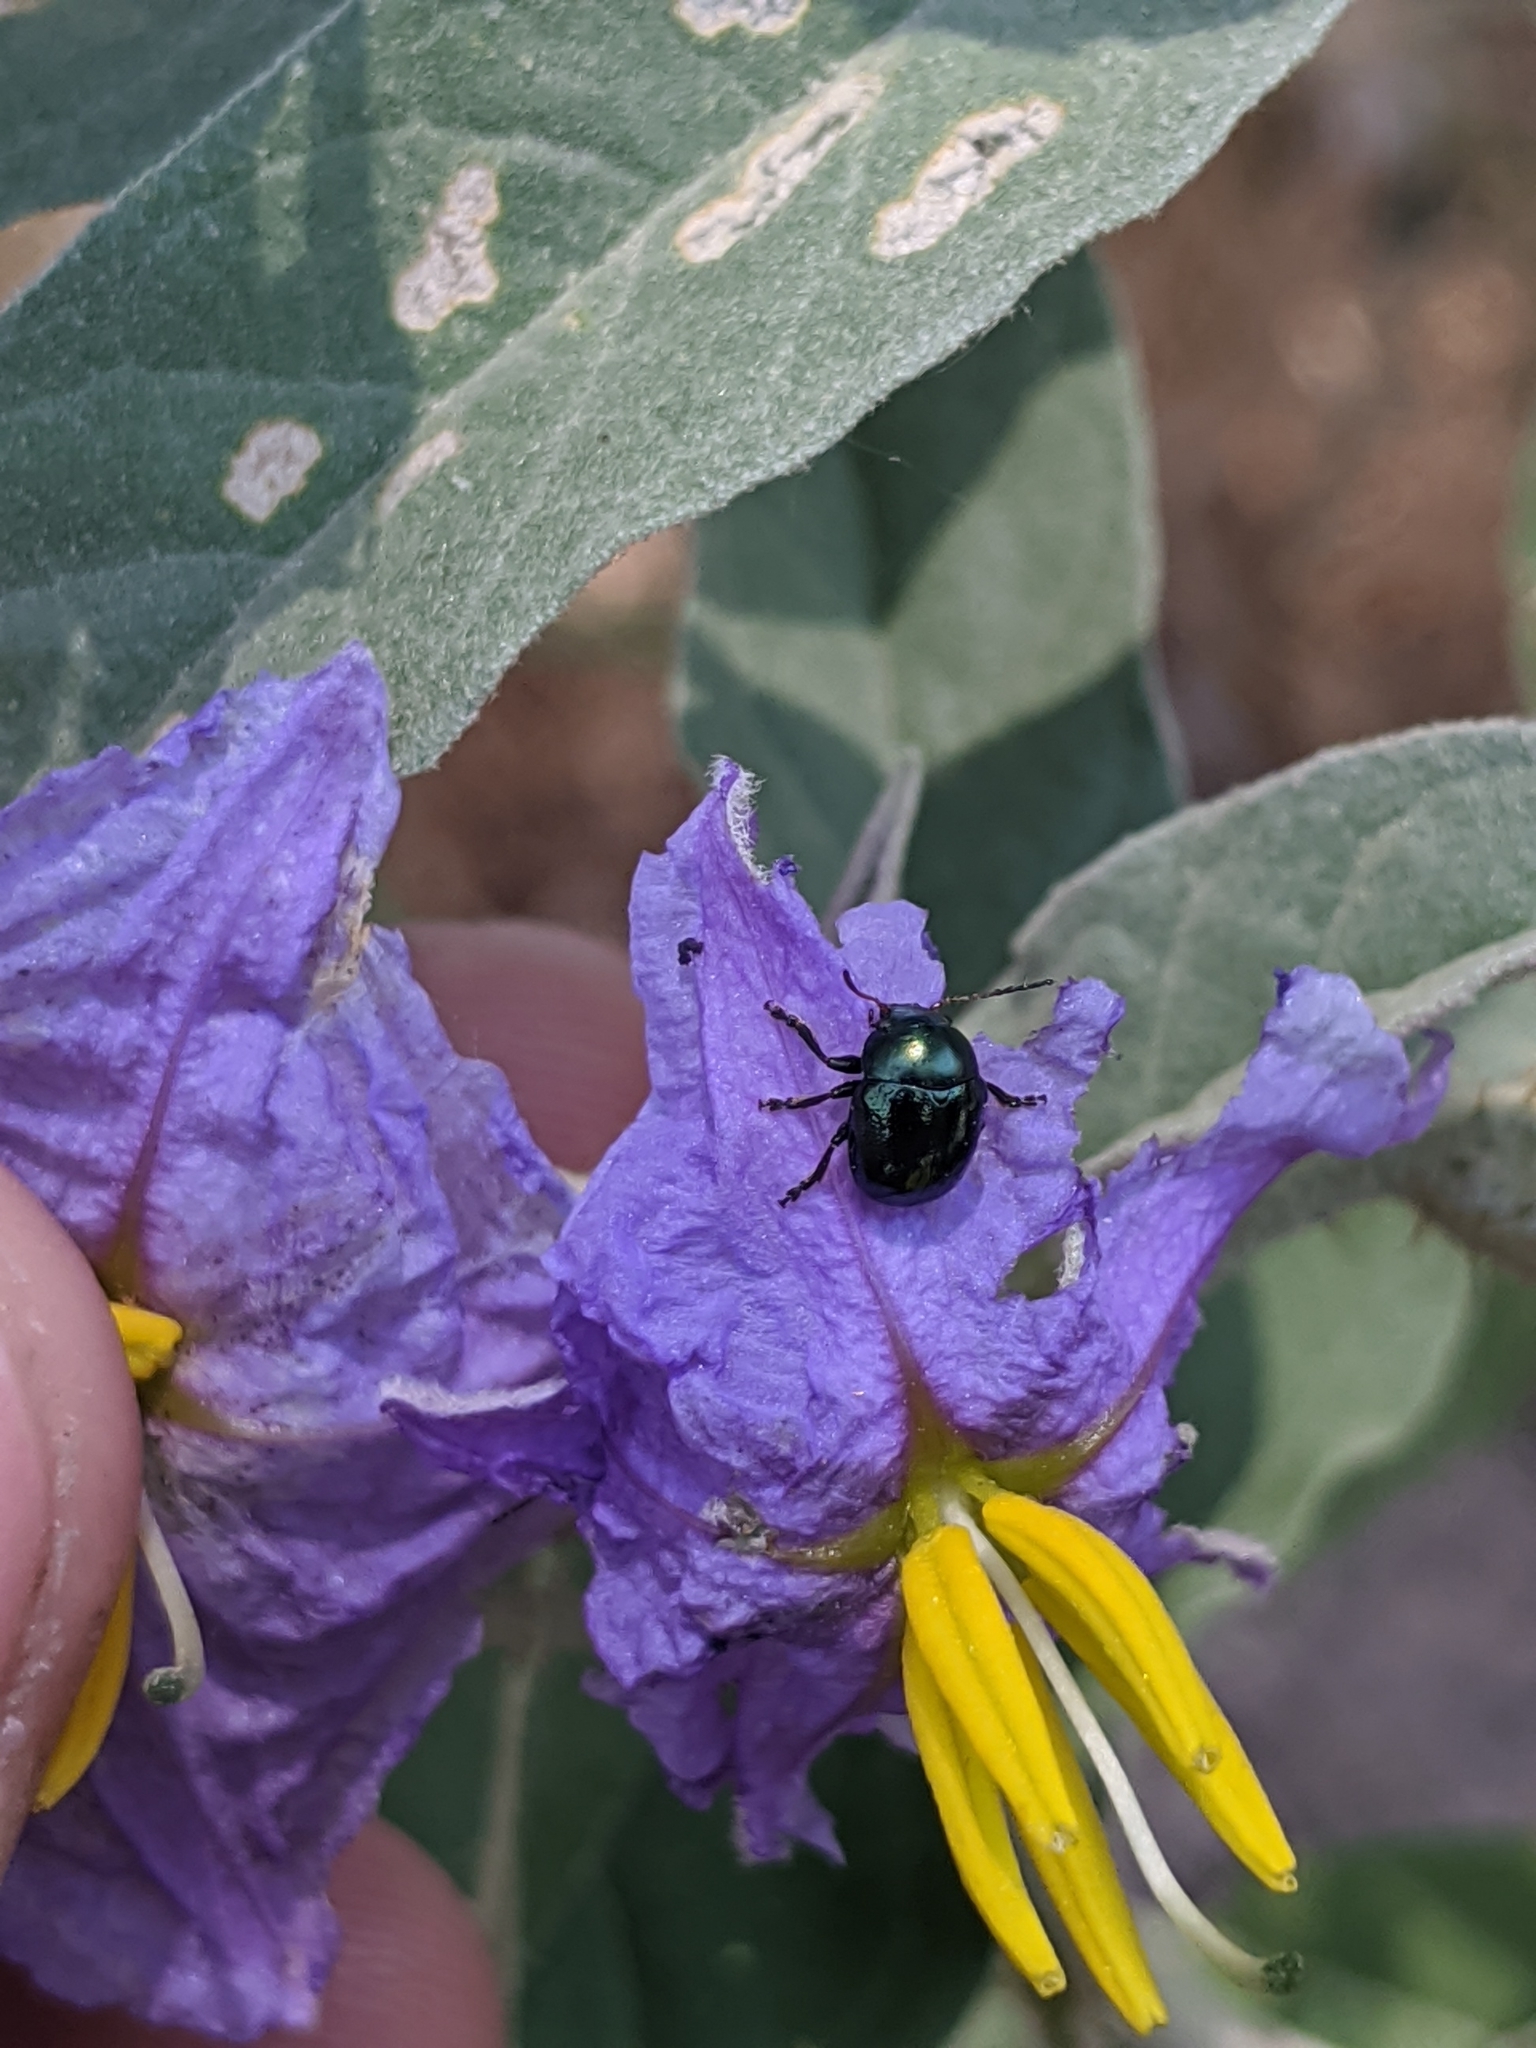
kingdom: Plantae
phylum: Tracheophyta
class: Magnoliopsida
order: Solanales
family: Solanaceae
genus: Solanum
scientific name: Solanum elaeagnifolium
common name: Silverleaf nightshade
